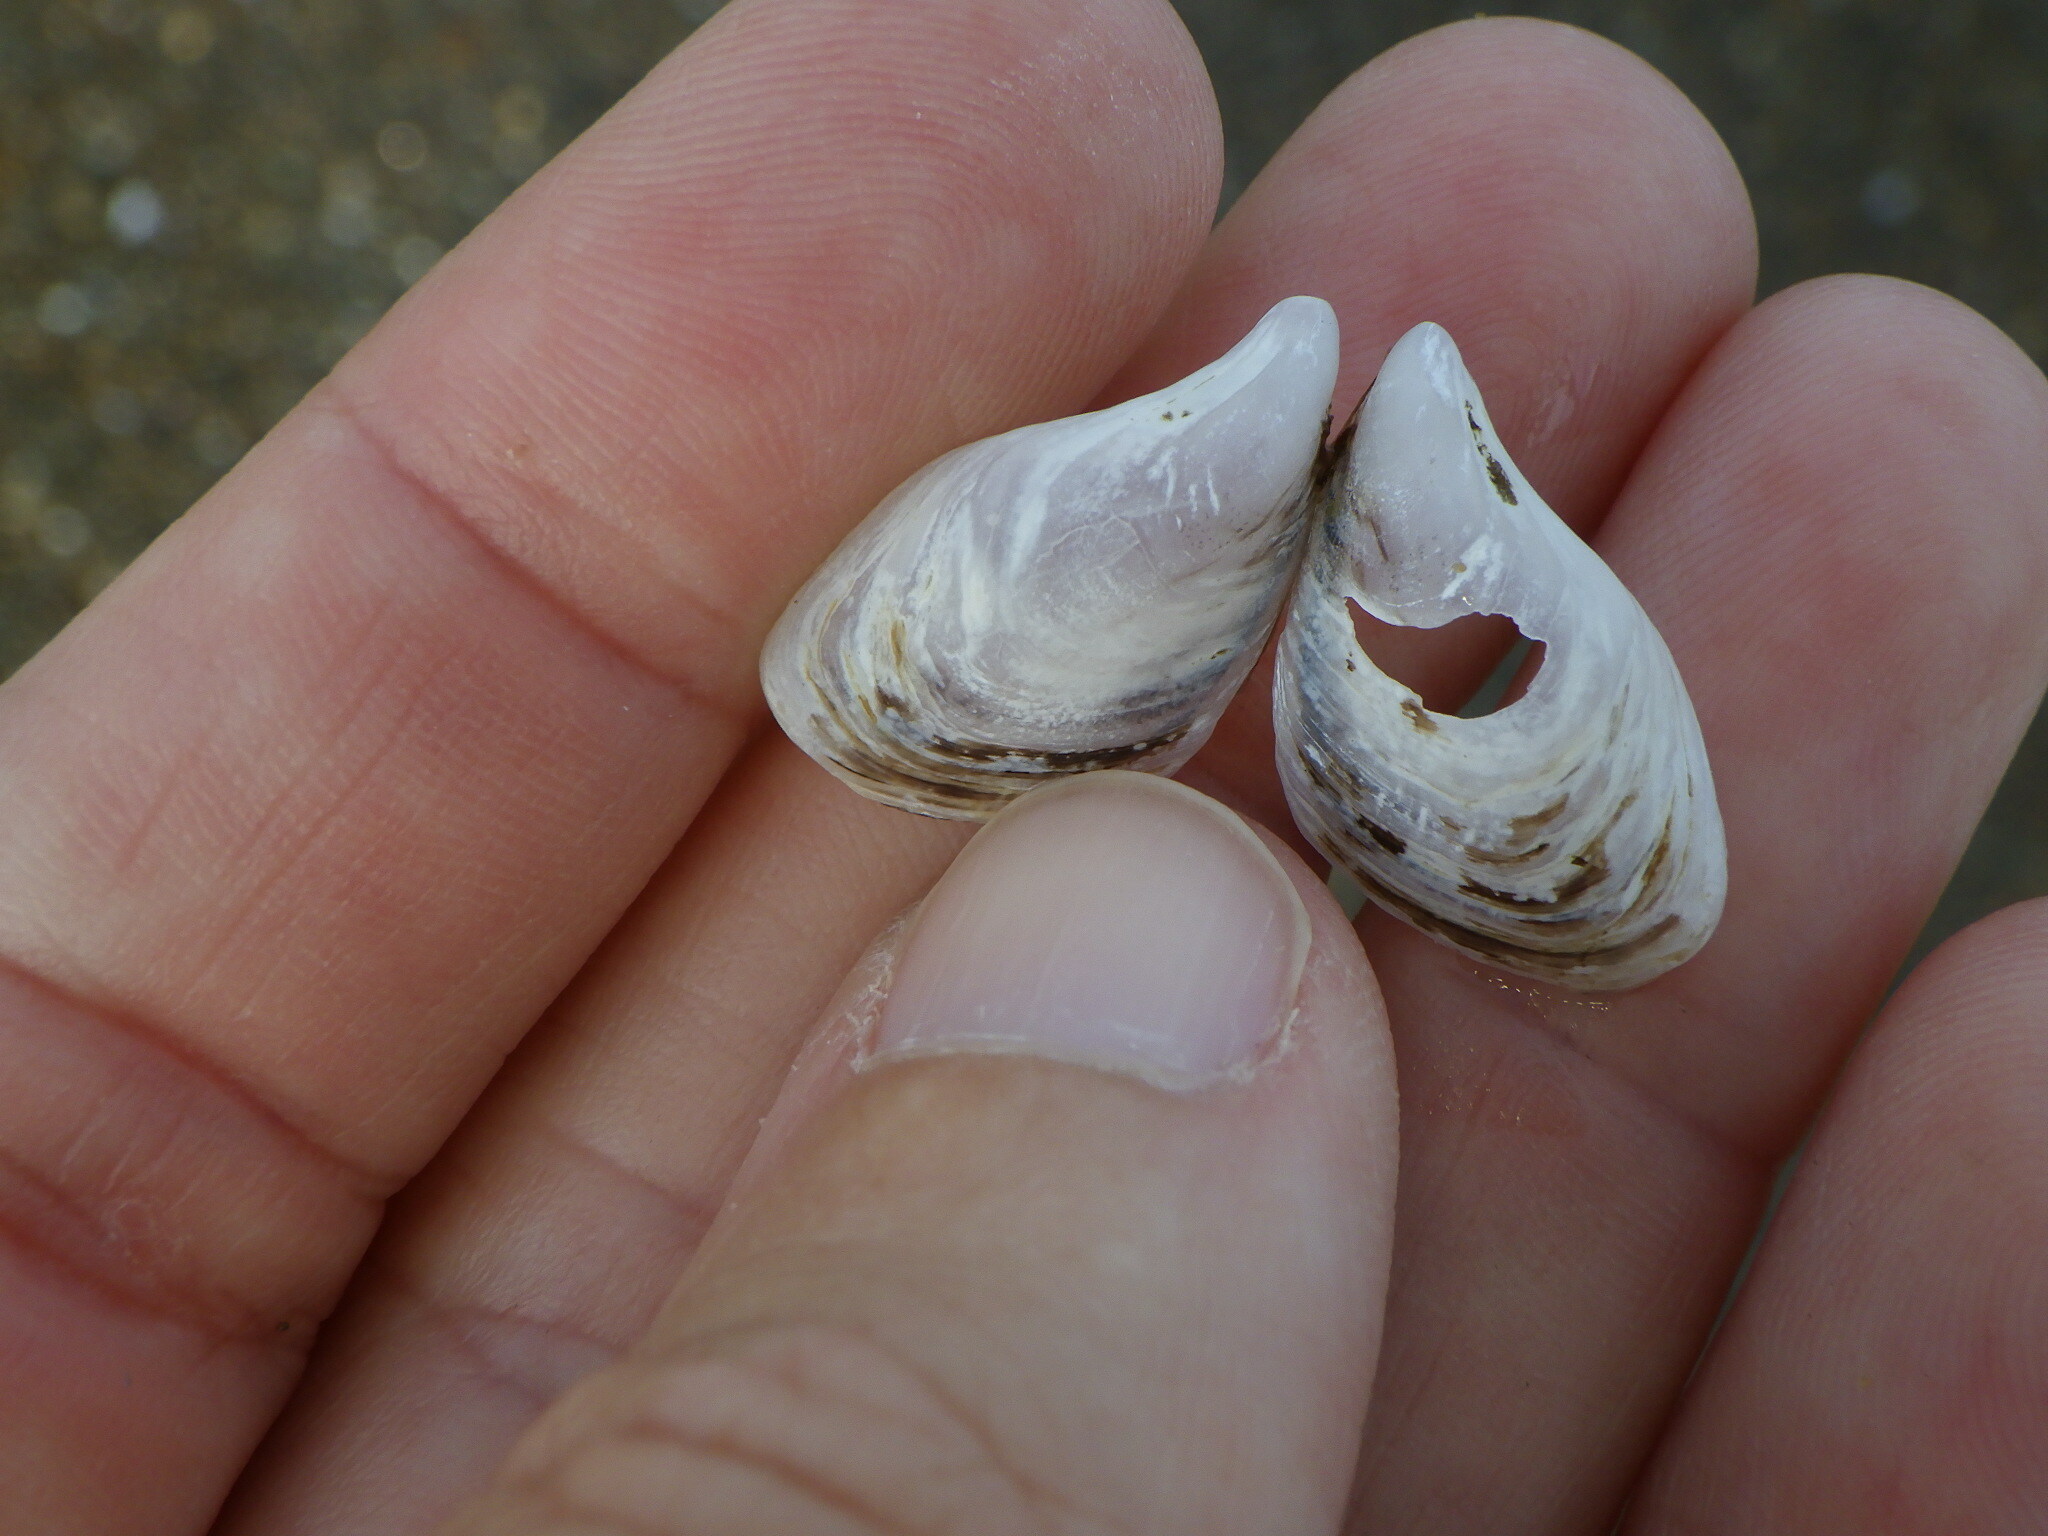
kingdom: Animalia
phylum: Mollusca
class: Bivalvia
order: Myida
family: Dreissenidae
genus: Dreissena
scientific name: Dreissena bugensis
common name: Quagga mussel
